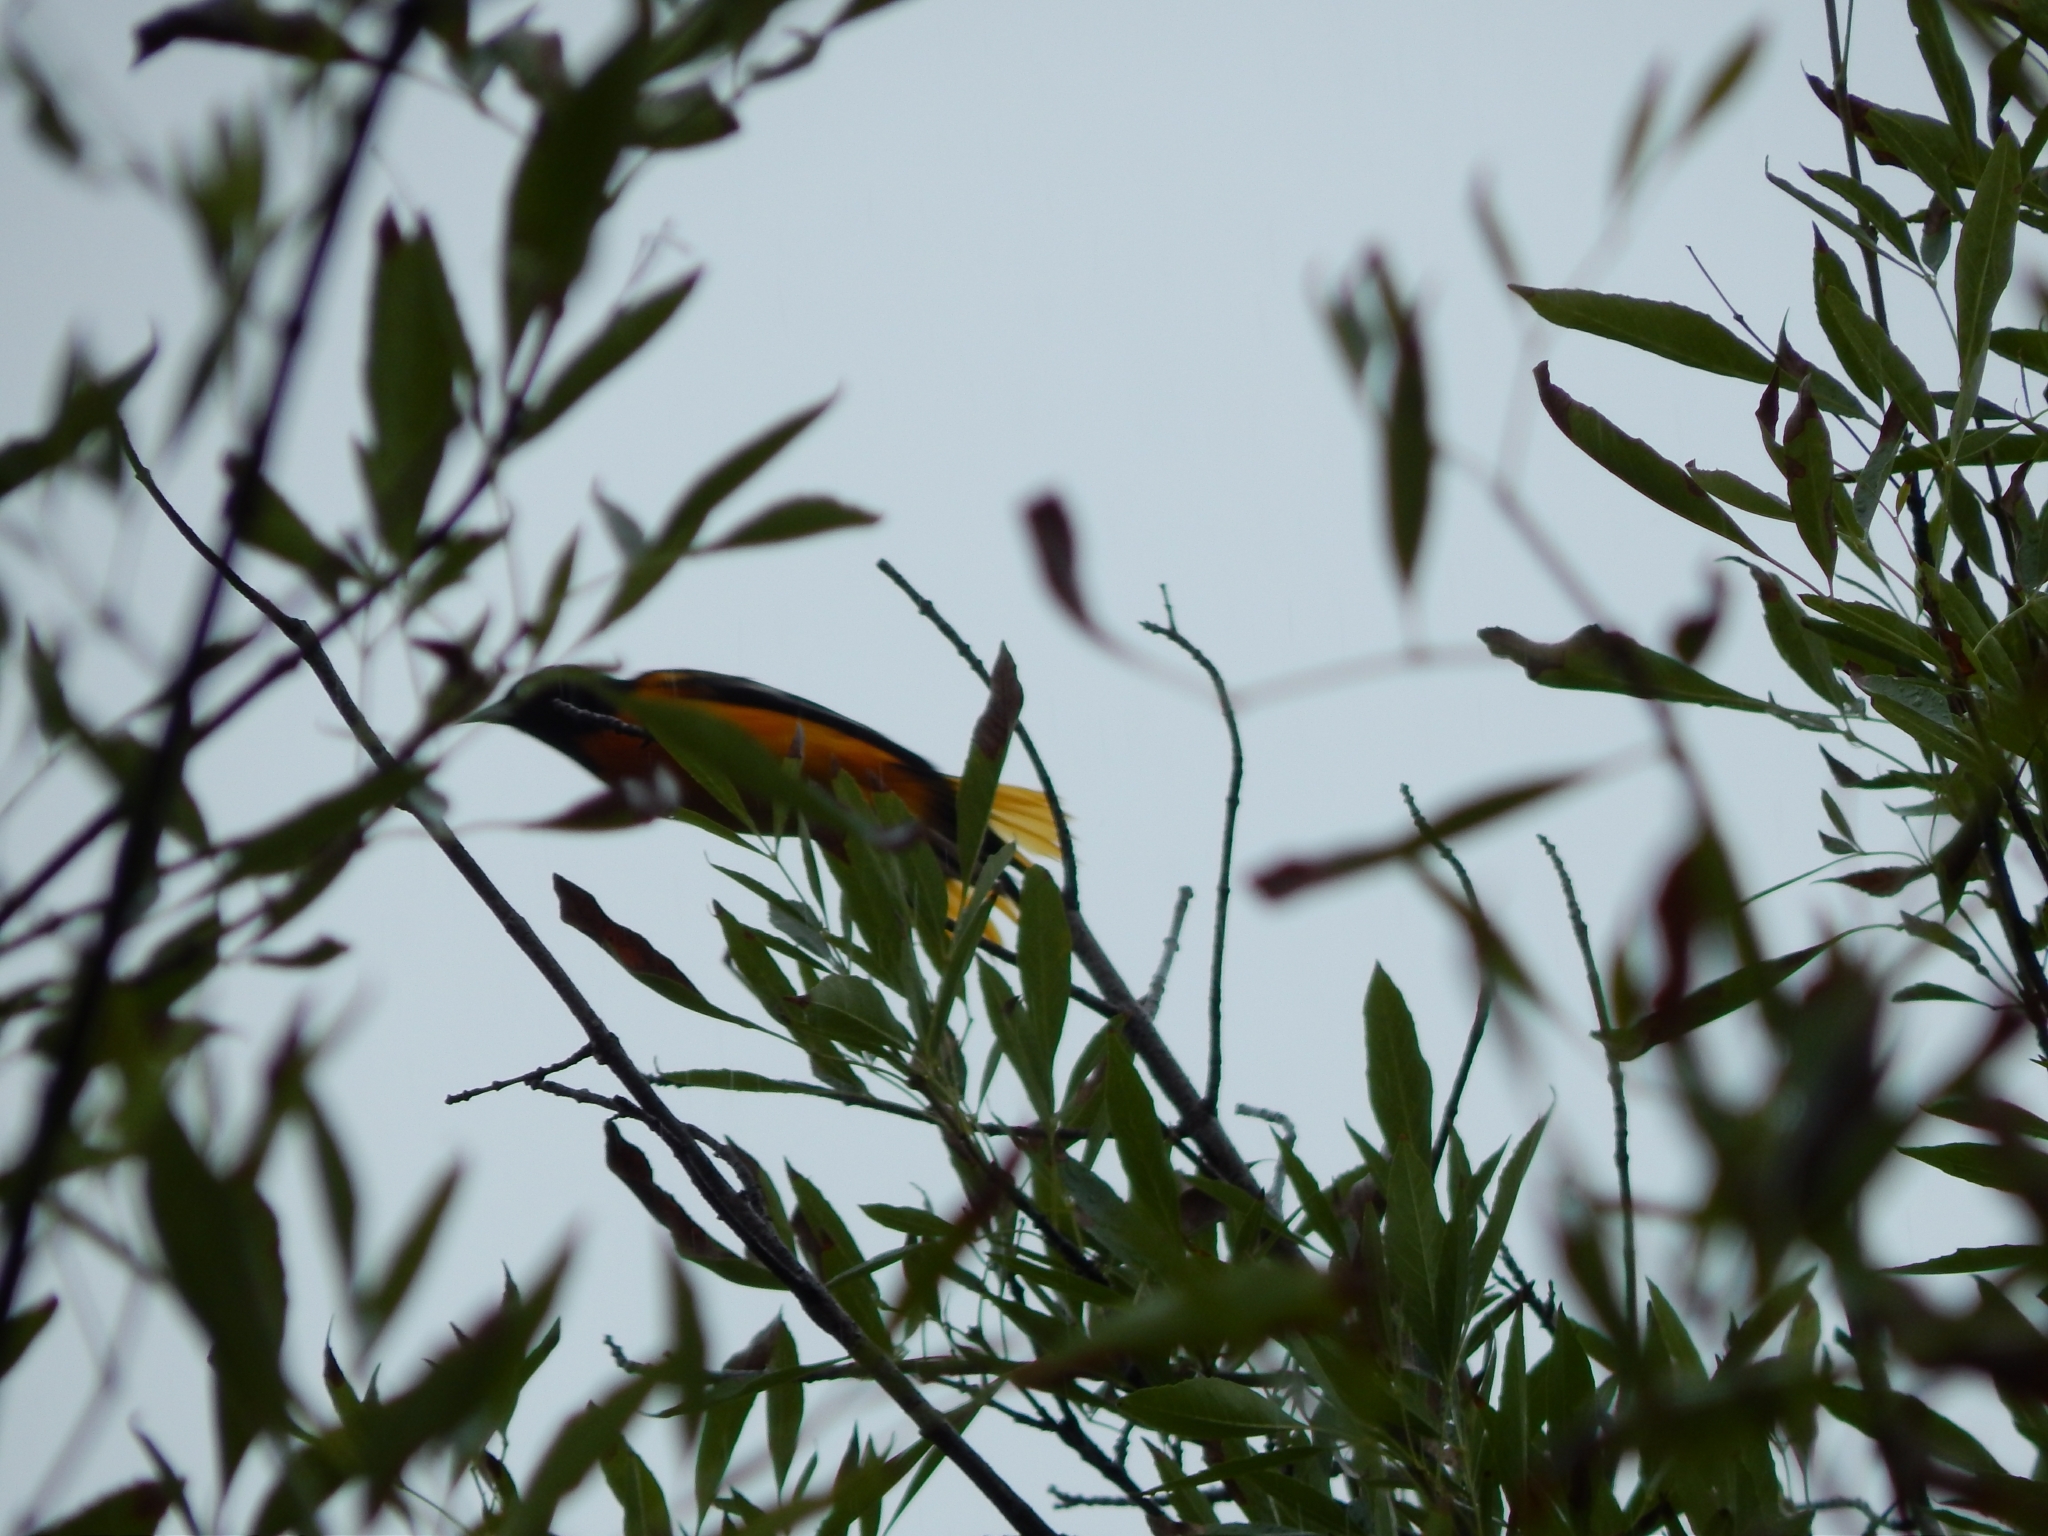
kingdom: Animalia
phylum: Chordata
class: Aves
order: Passeriformes
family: Icteridae
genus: Icterus
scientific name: Icterus galbula
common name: Baltimore oriole
